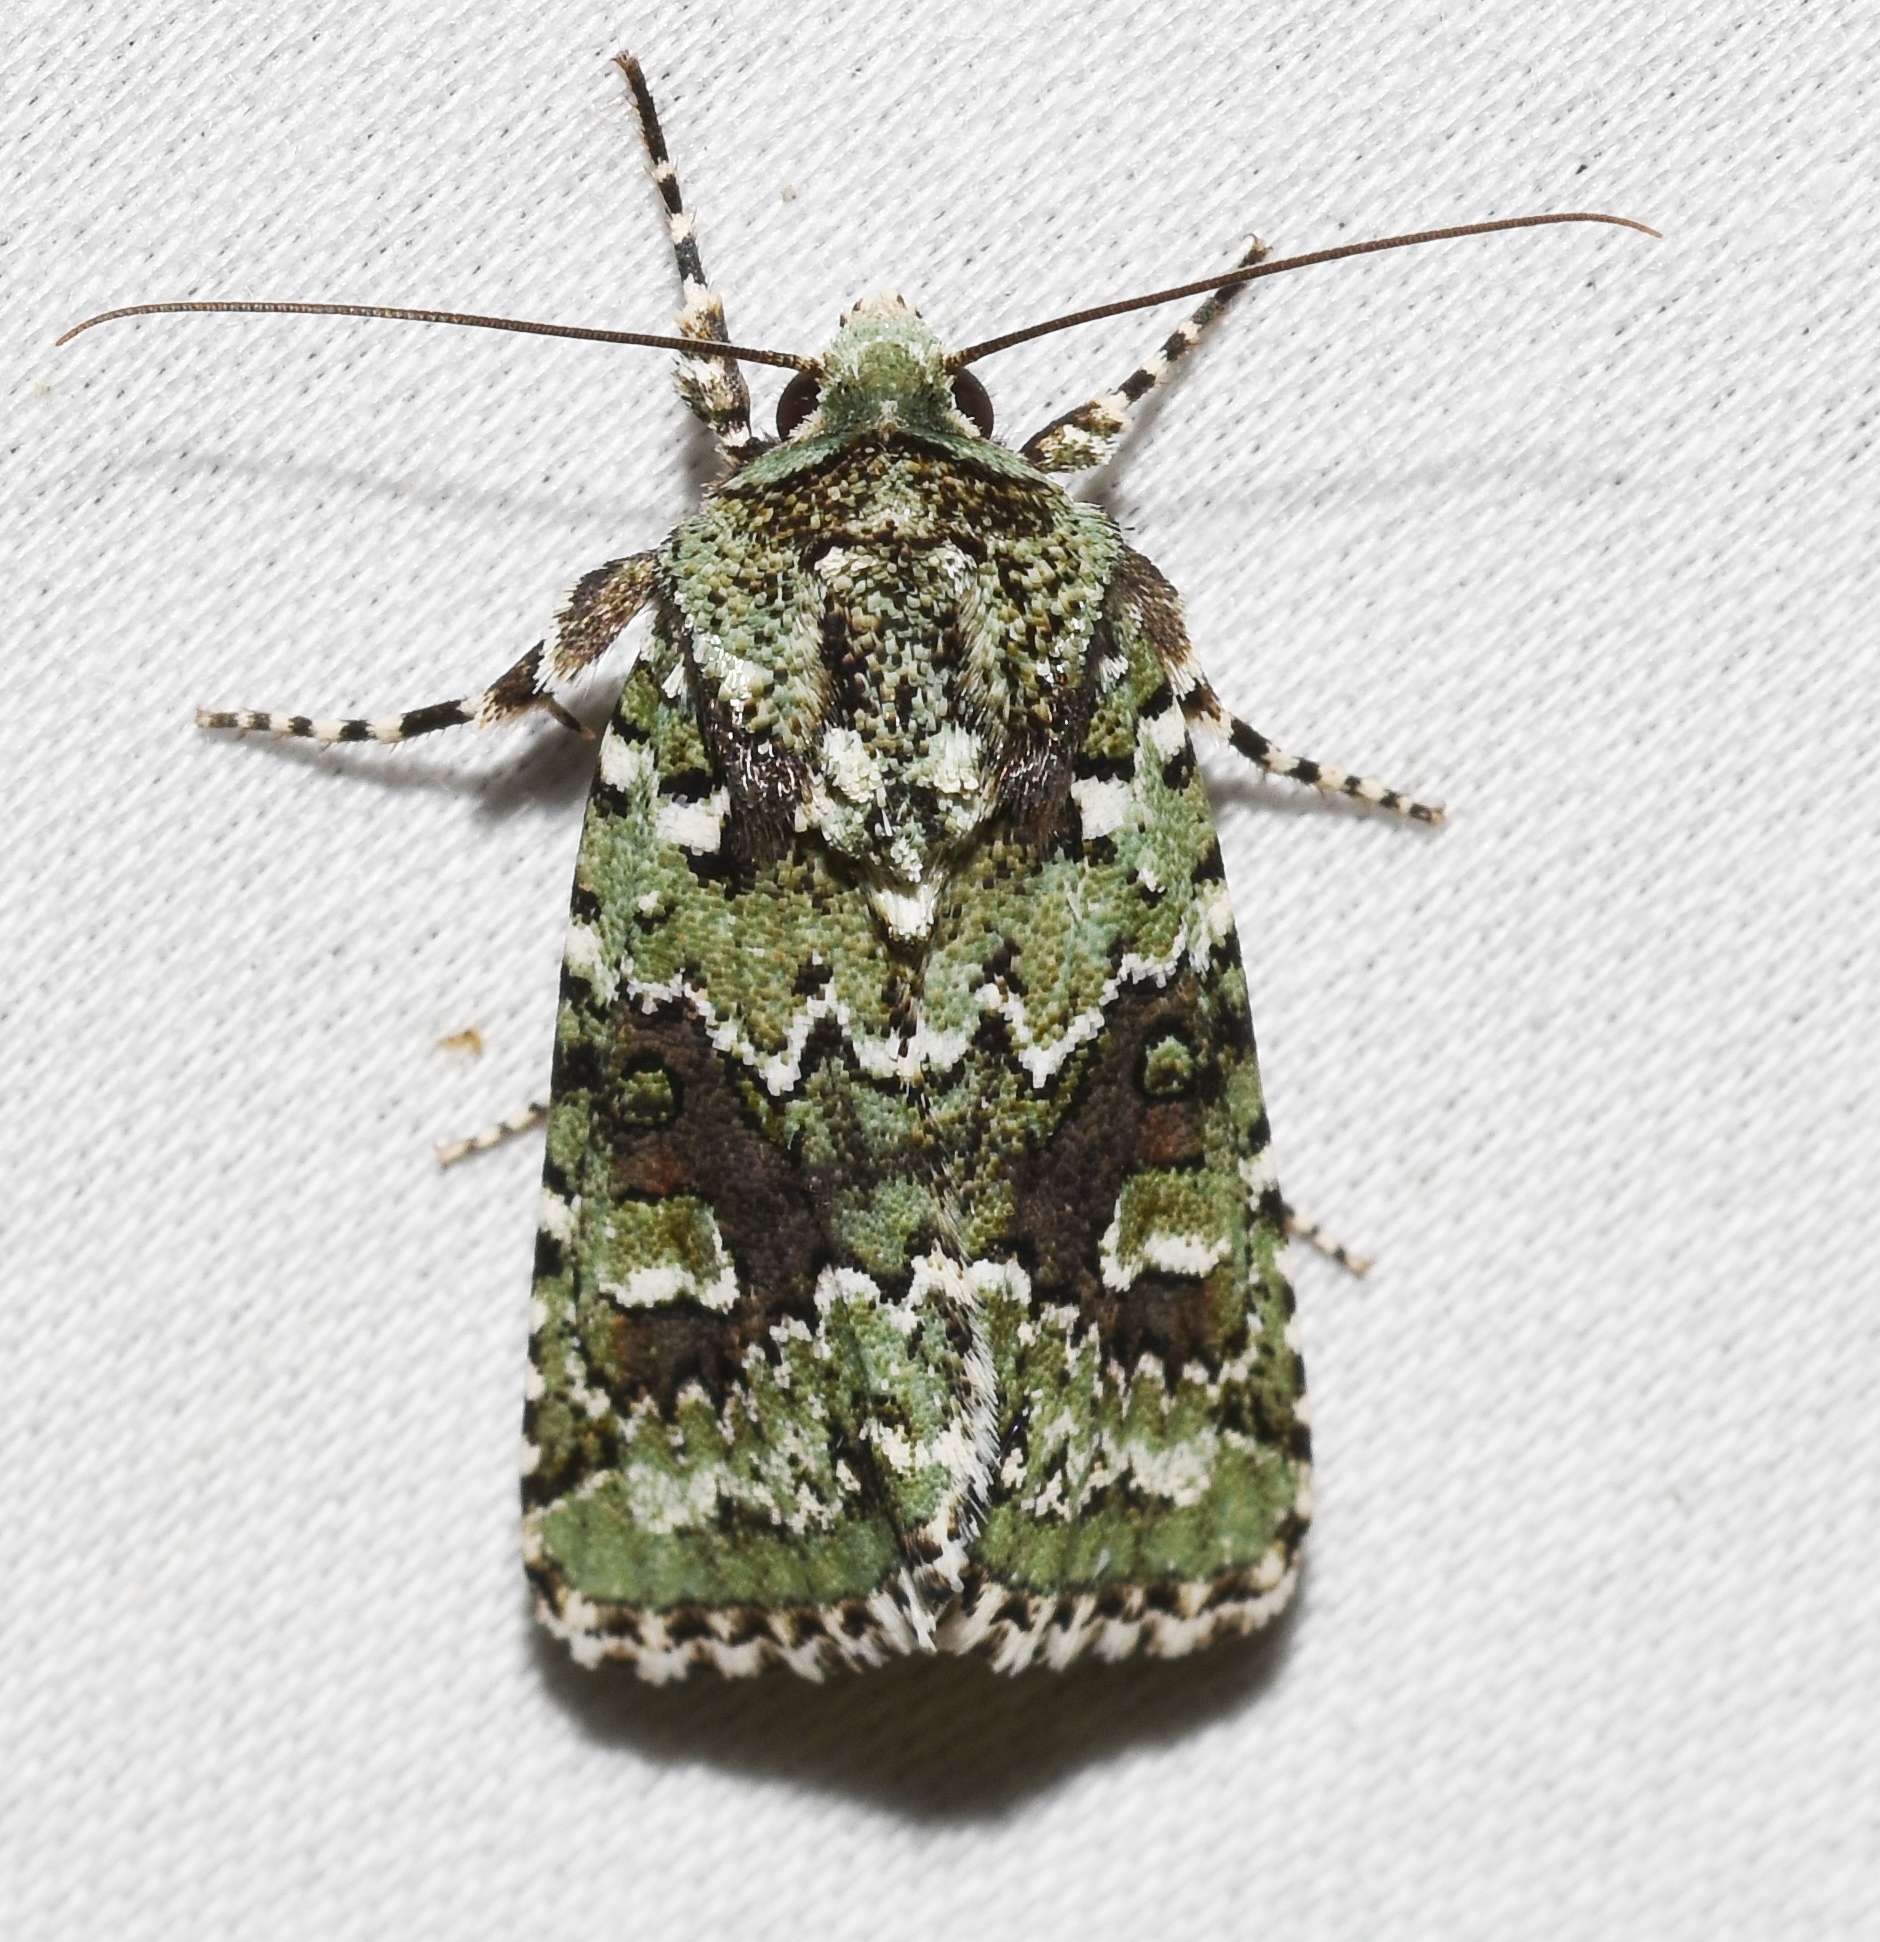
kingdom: Animalia
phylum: Arthropoda
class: Insecta
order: Lepidoptera
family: Noctuidae
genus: Lacinipolia
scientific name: Lacinipolia laudabilis
